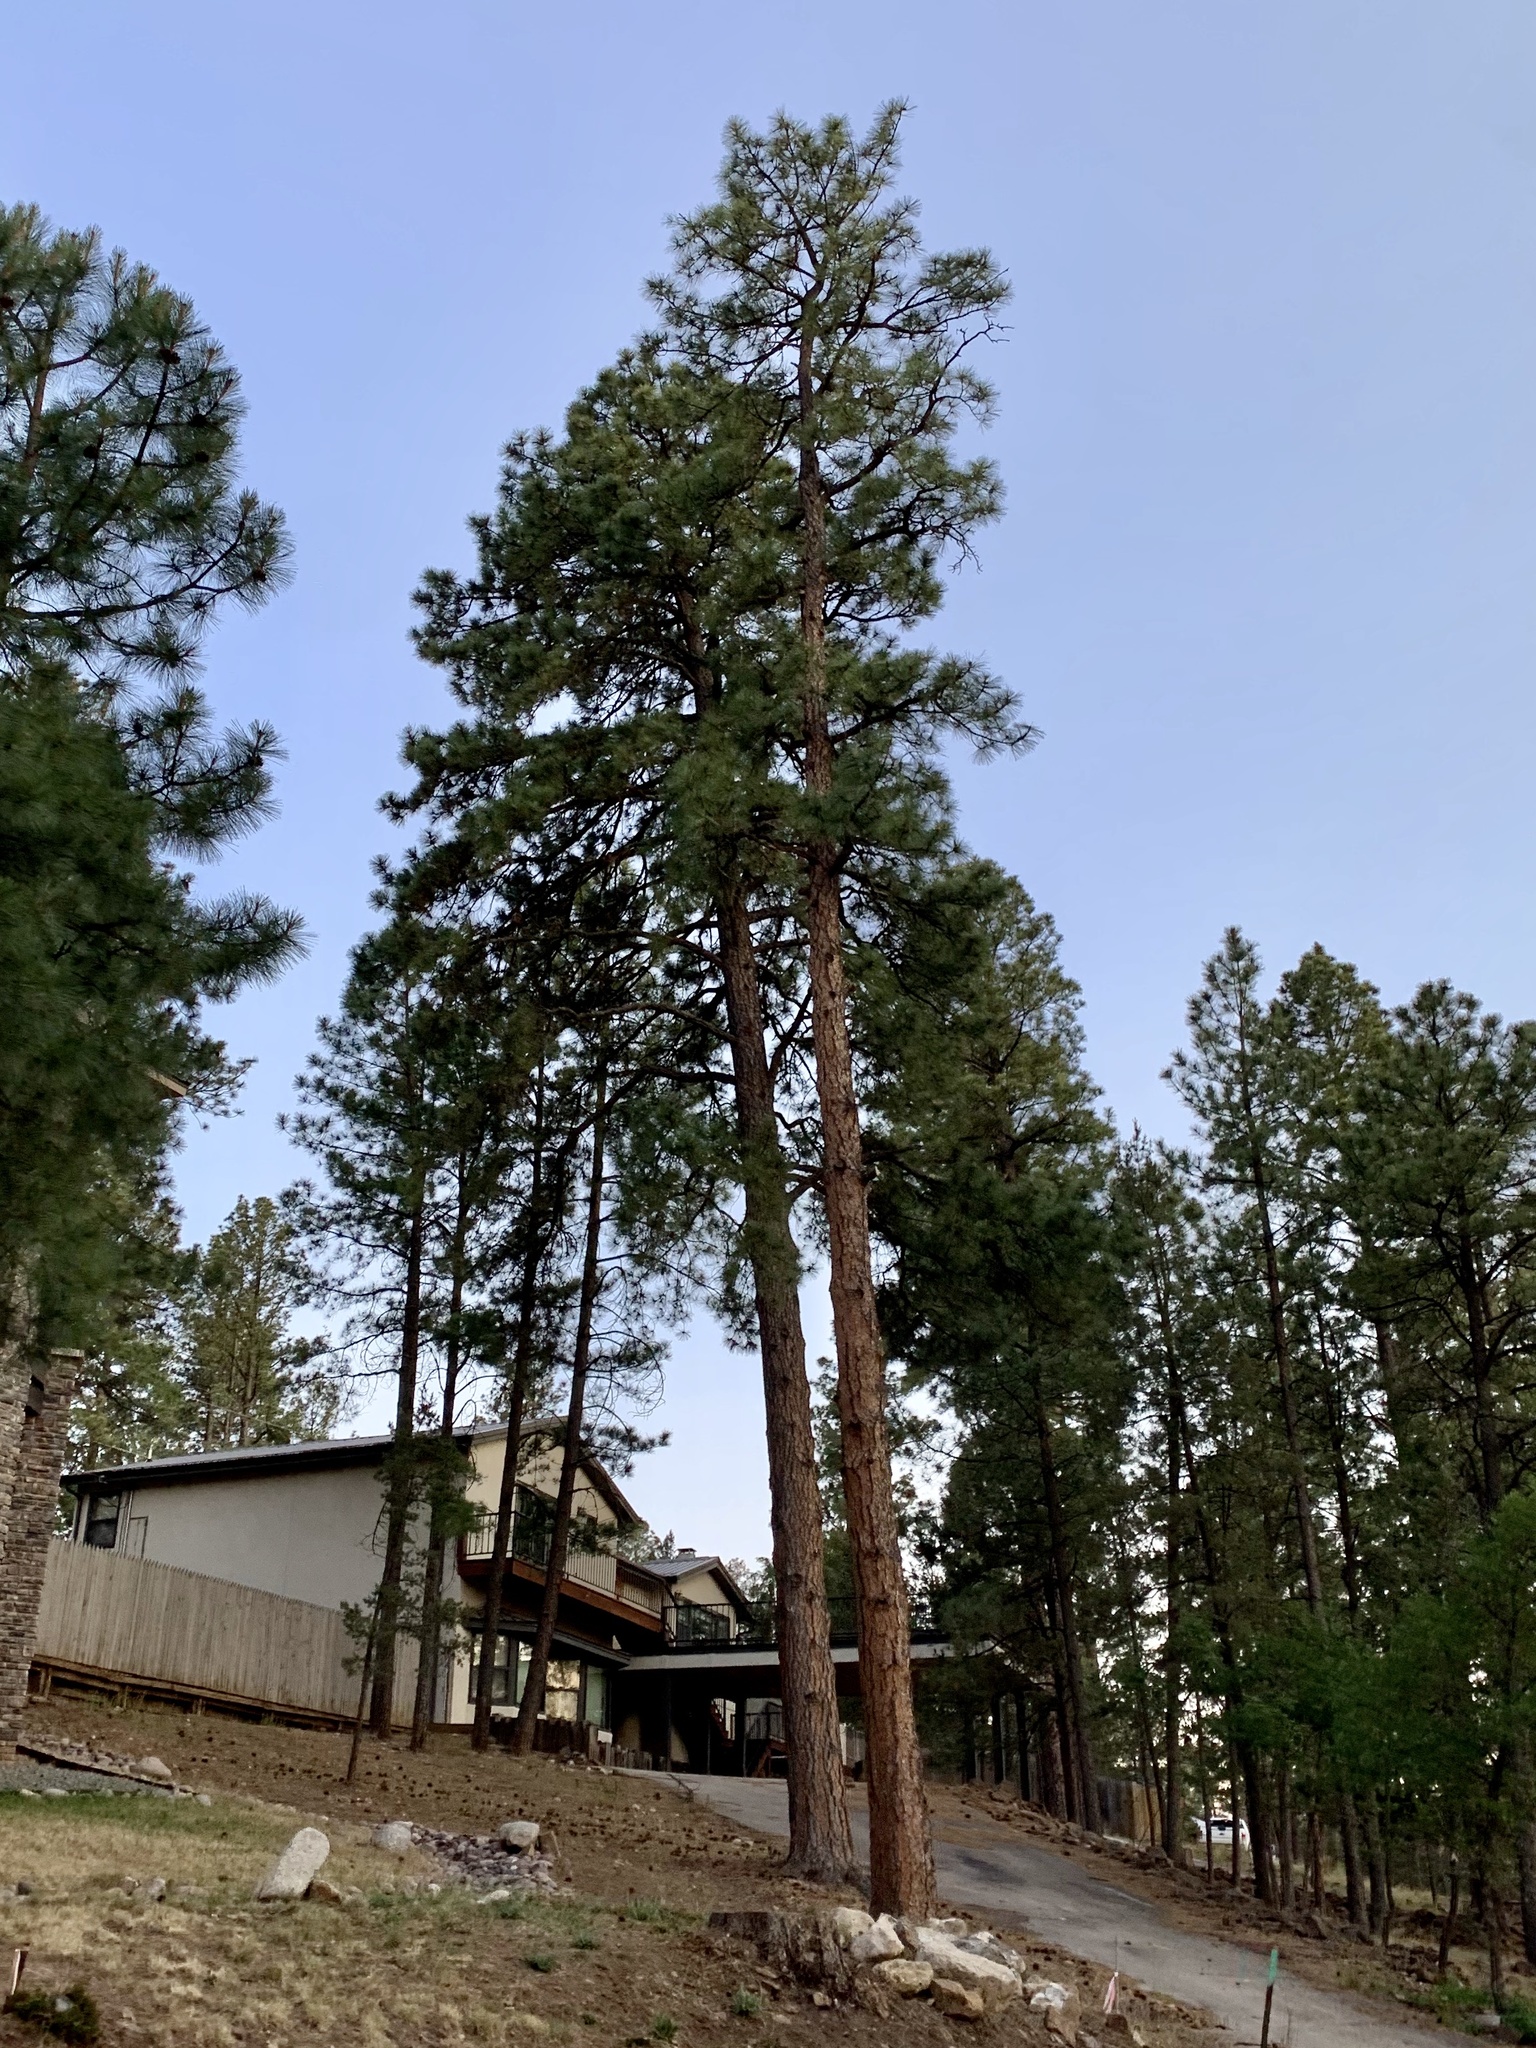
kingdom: Plantae
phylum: Tracheophyta
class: Pinopsida
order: Pinales
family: Pinaceae
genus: Pinus
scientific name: Pinus ponderosa
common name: Western yellow-pine
